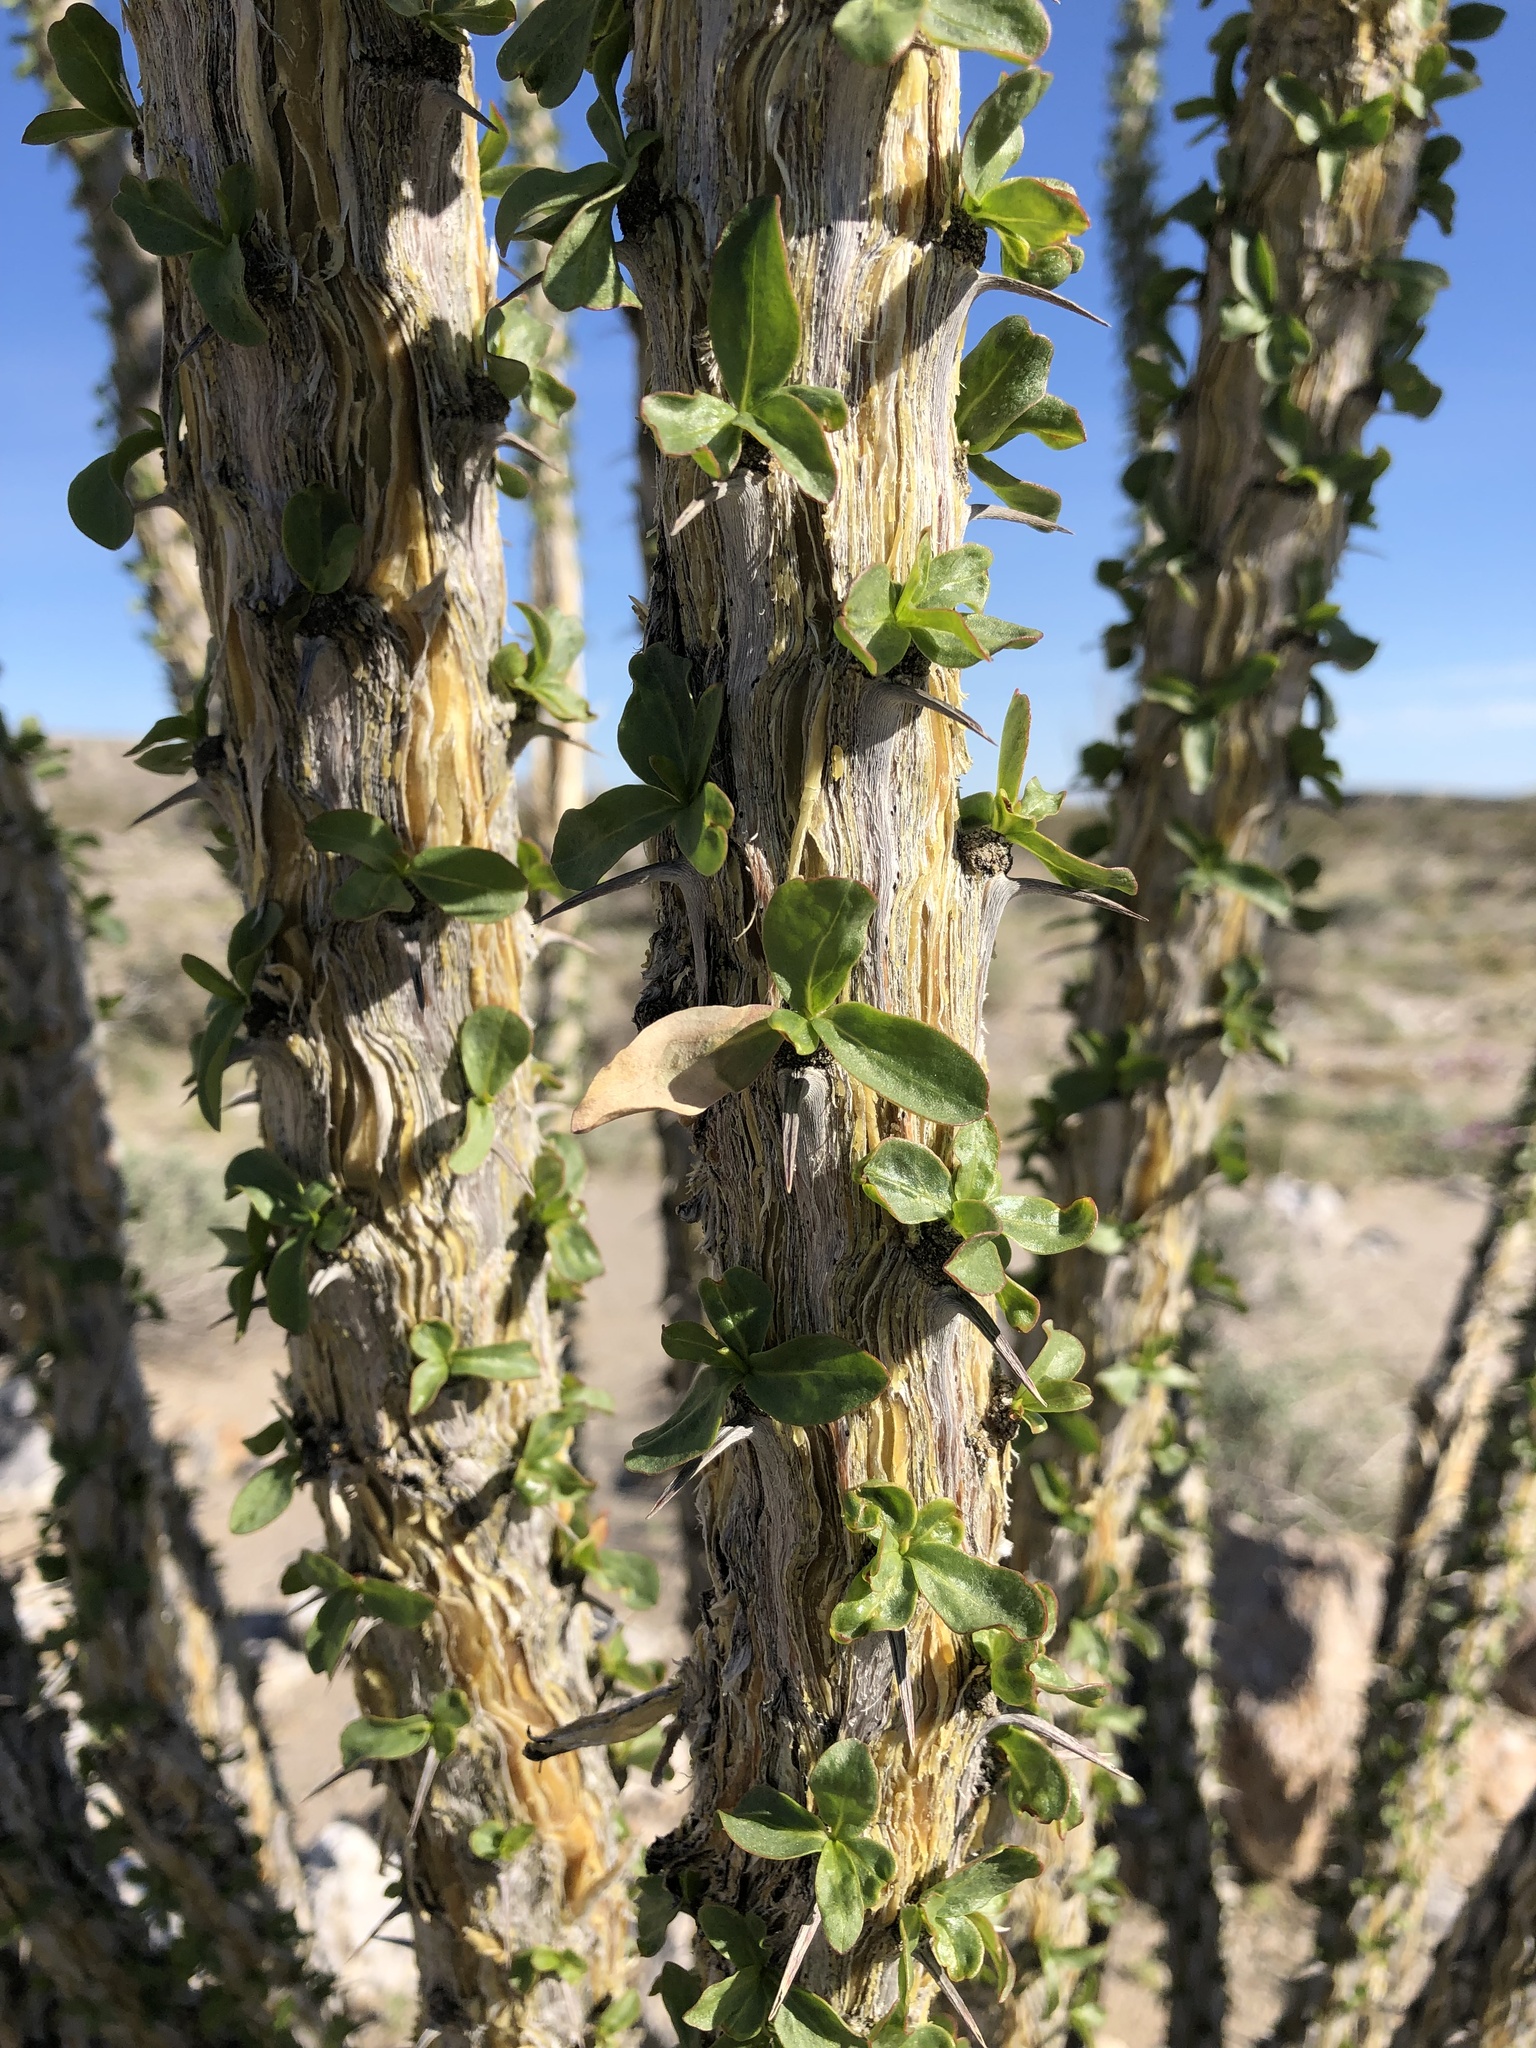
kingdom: Plantae
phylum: Tracheophyta
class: Magnoliopsida
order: Ericales
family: Fouquieriaceae
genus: Fouquieria
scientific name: Fouquieria splendens
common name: Vine-cactus
